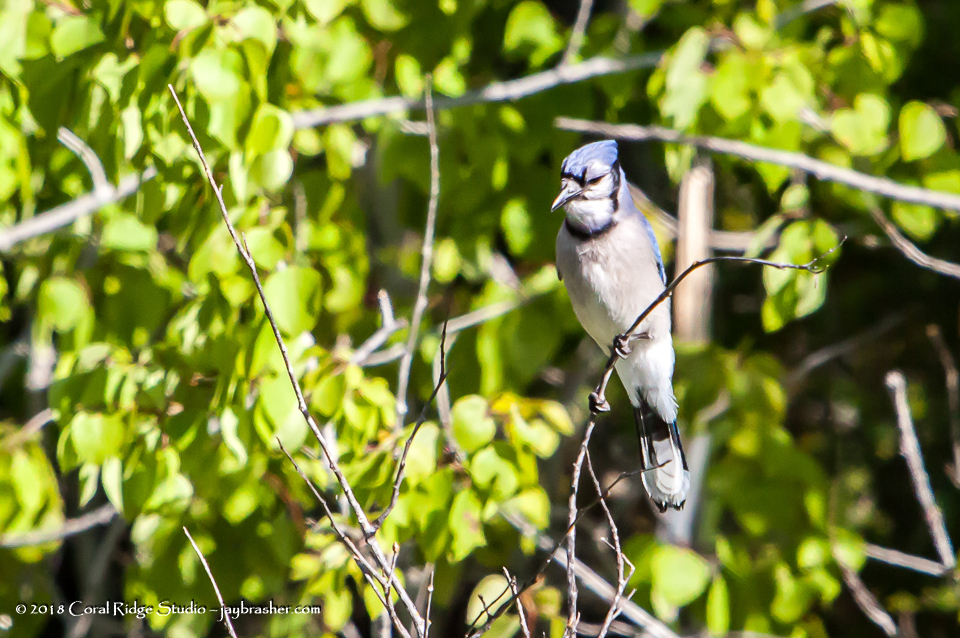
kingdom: Animalia
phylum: Chordata
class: Aves
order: Passeriformes
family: Corvidae
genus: Cyanocitta
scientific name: Cyanocitta cristata
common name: Blue jay
